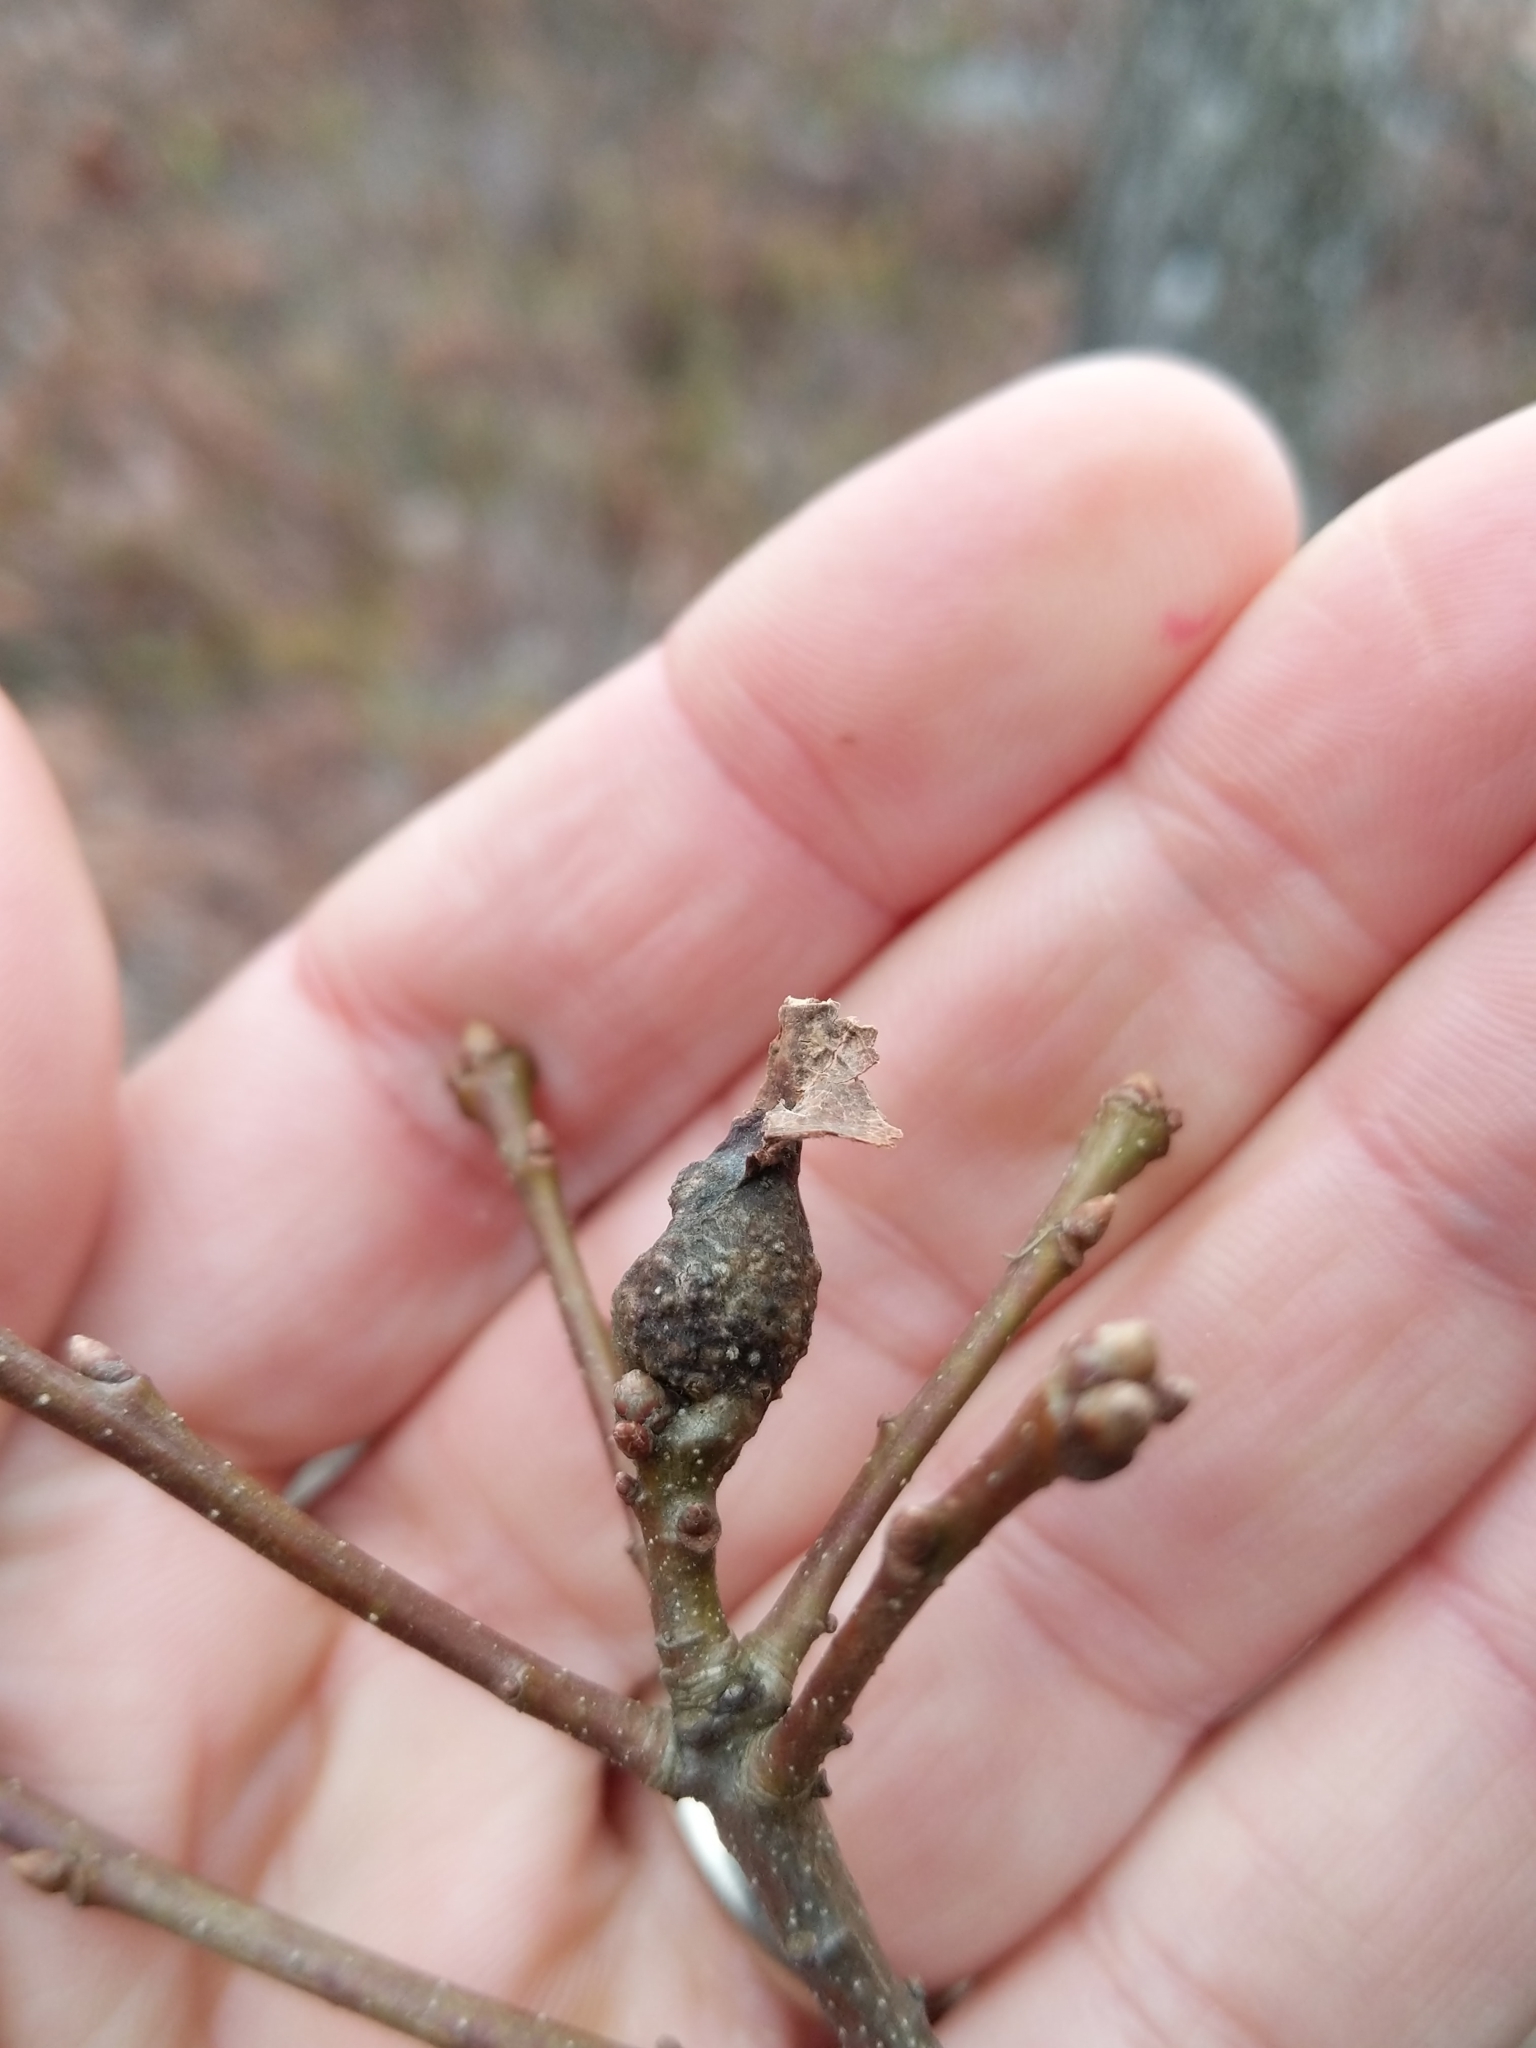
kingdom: Animalia
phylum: Arthropoda
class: Insecta
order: Hymenoptera
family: Cynipidae
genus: Andricus
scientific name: Andricus
